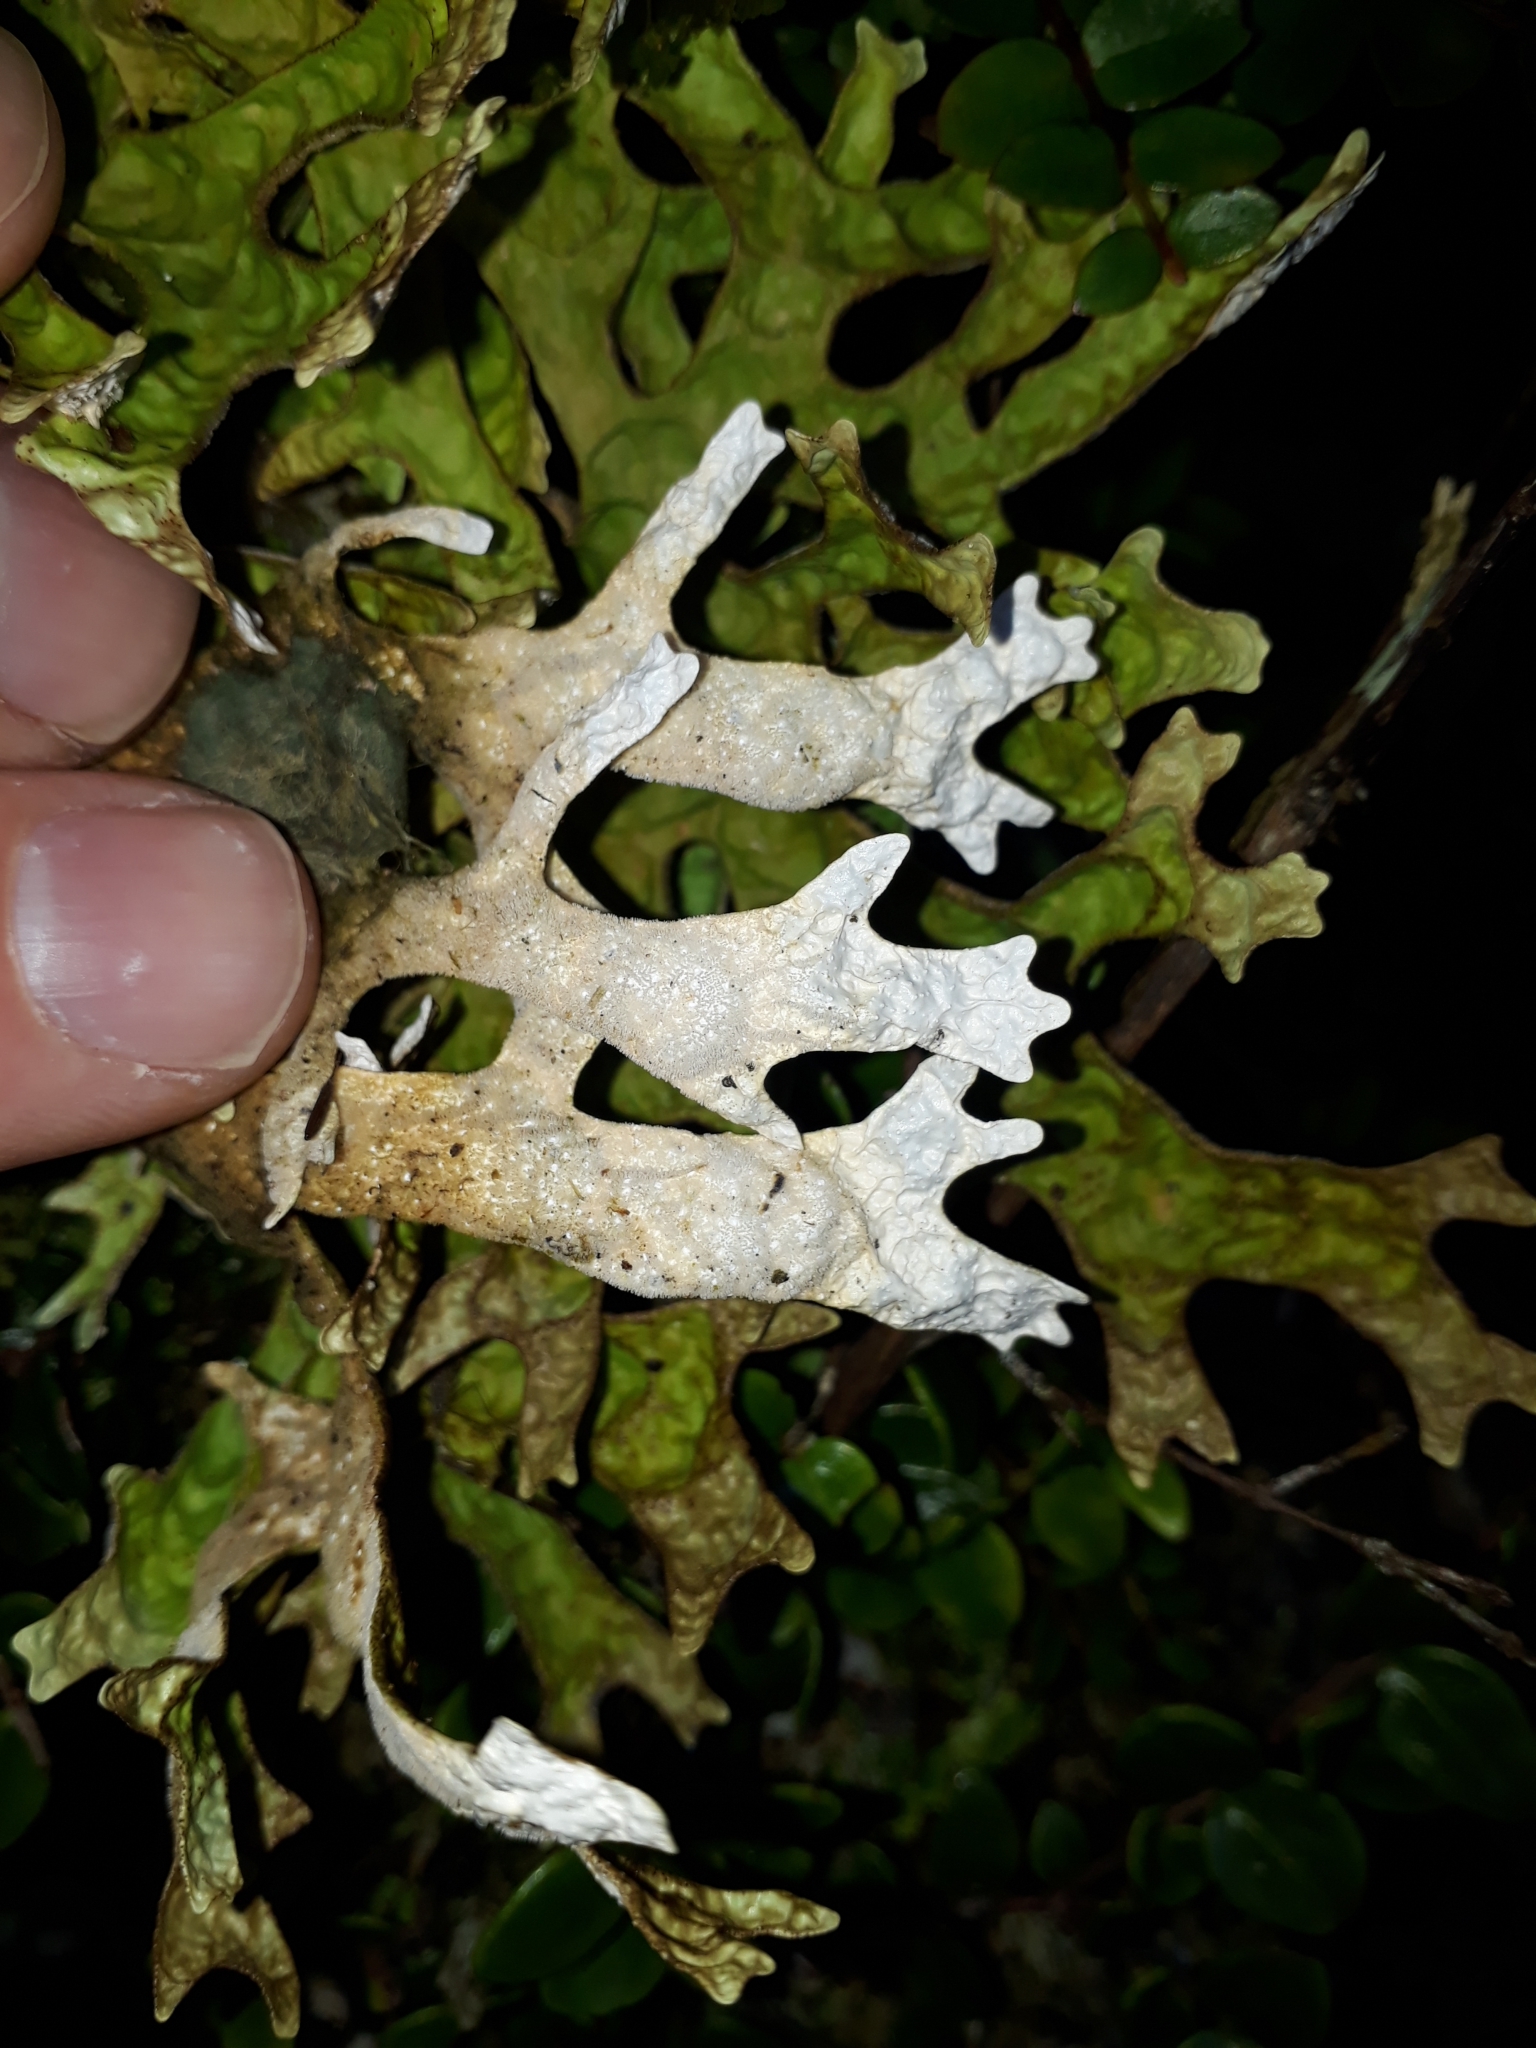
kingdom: Fungi
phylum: Ascomycota
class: Lecanoromycetes
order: Peltigerales
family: Lobariaceae
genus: Pseudocyphellaria
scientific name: Pseudocyphellaria rufovirescens
